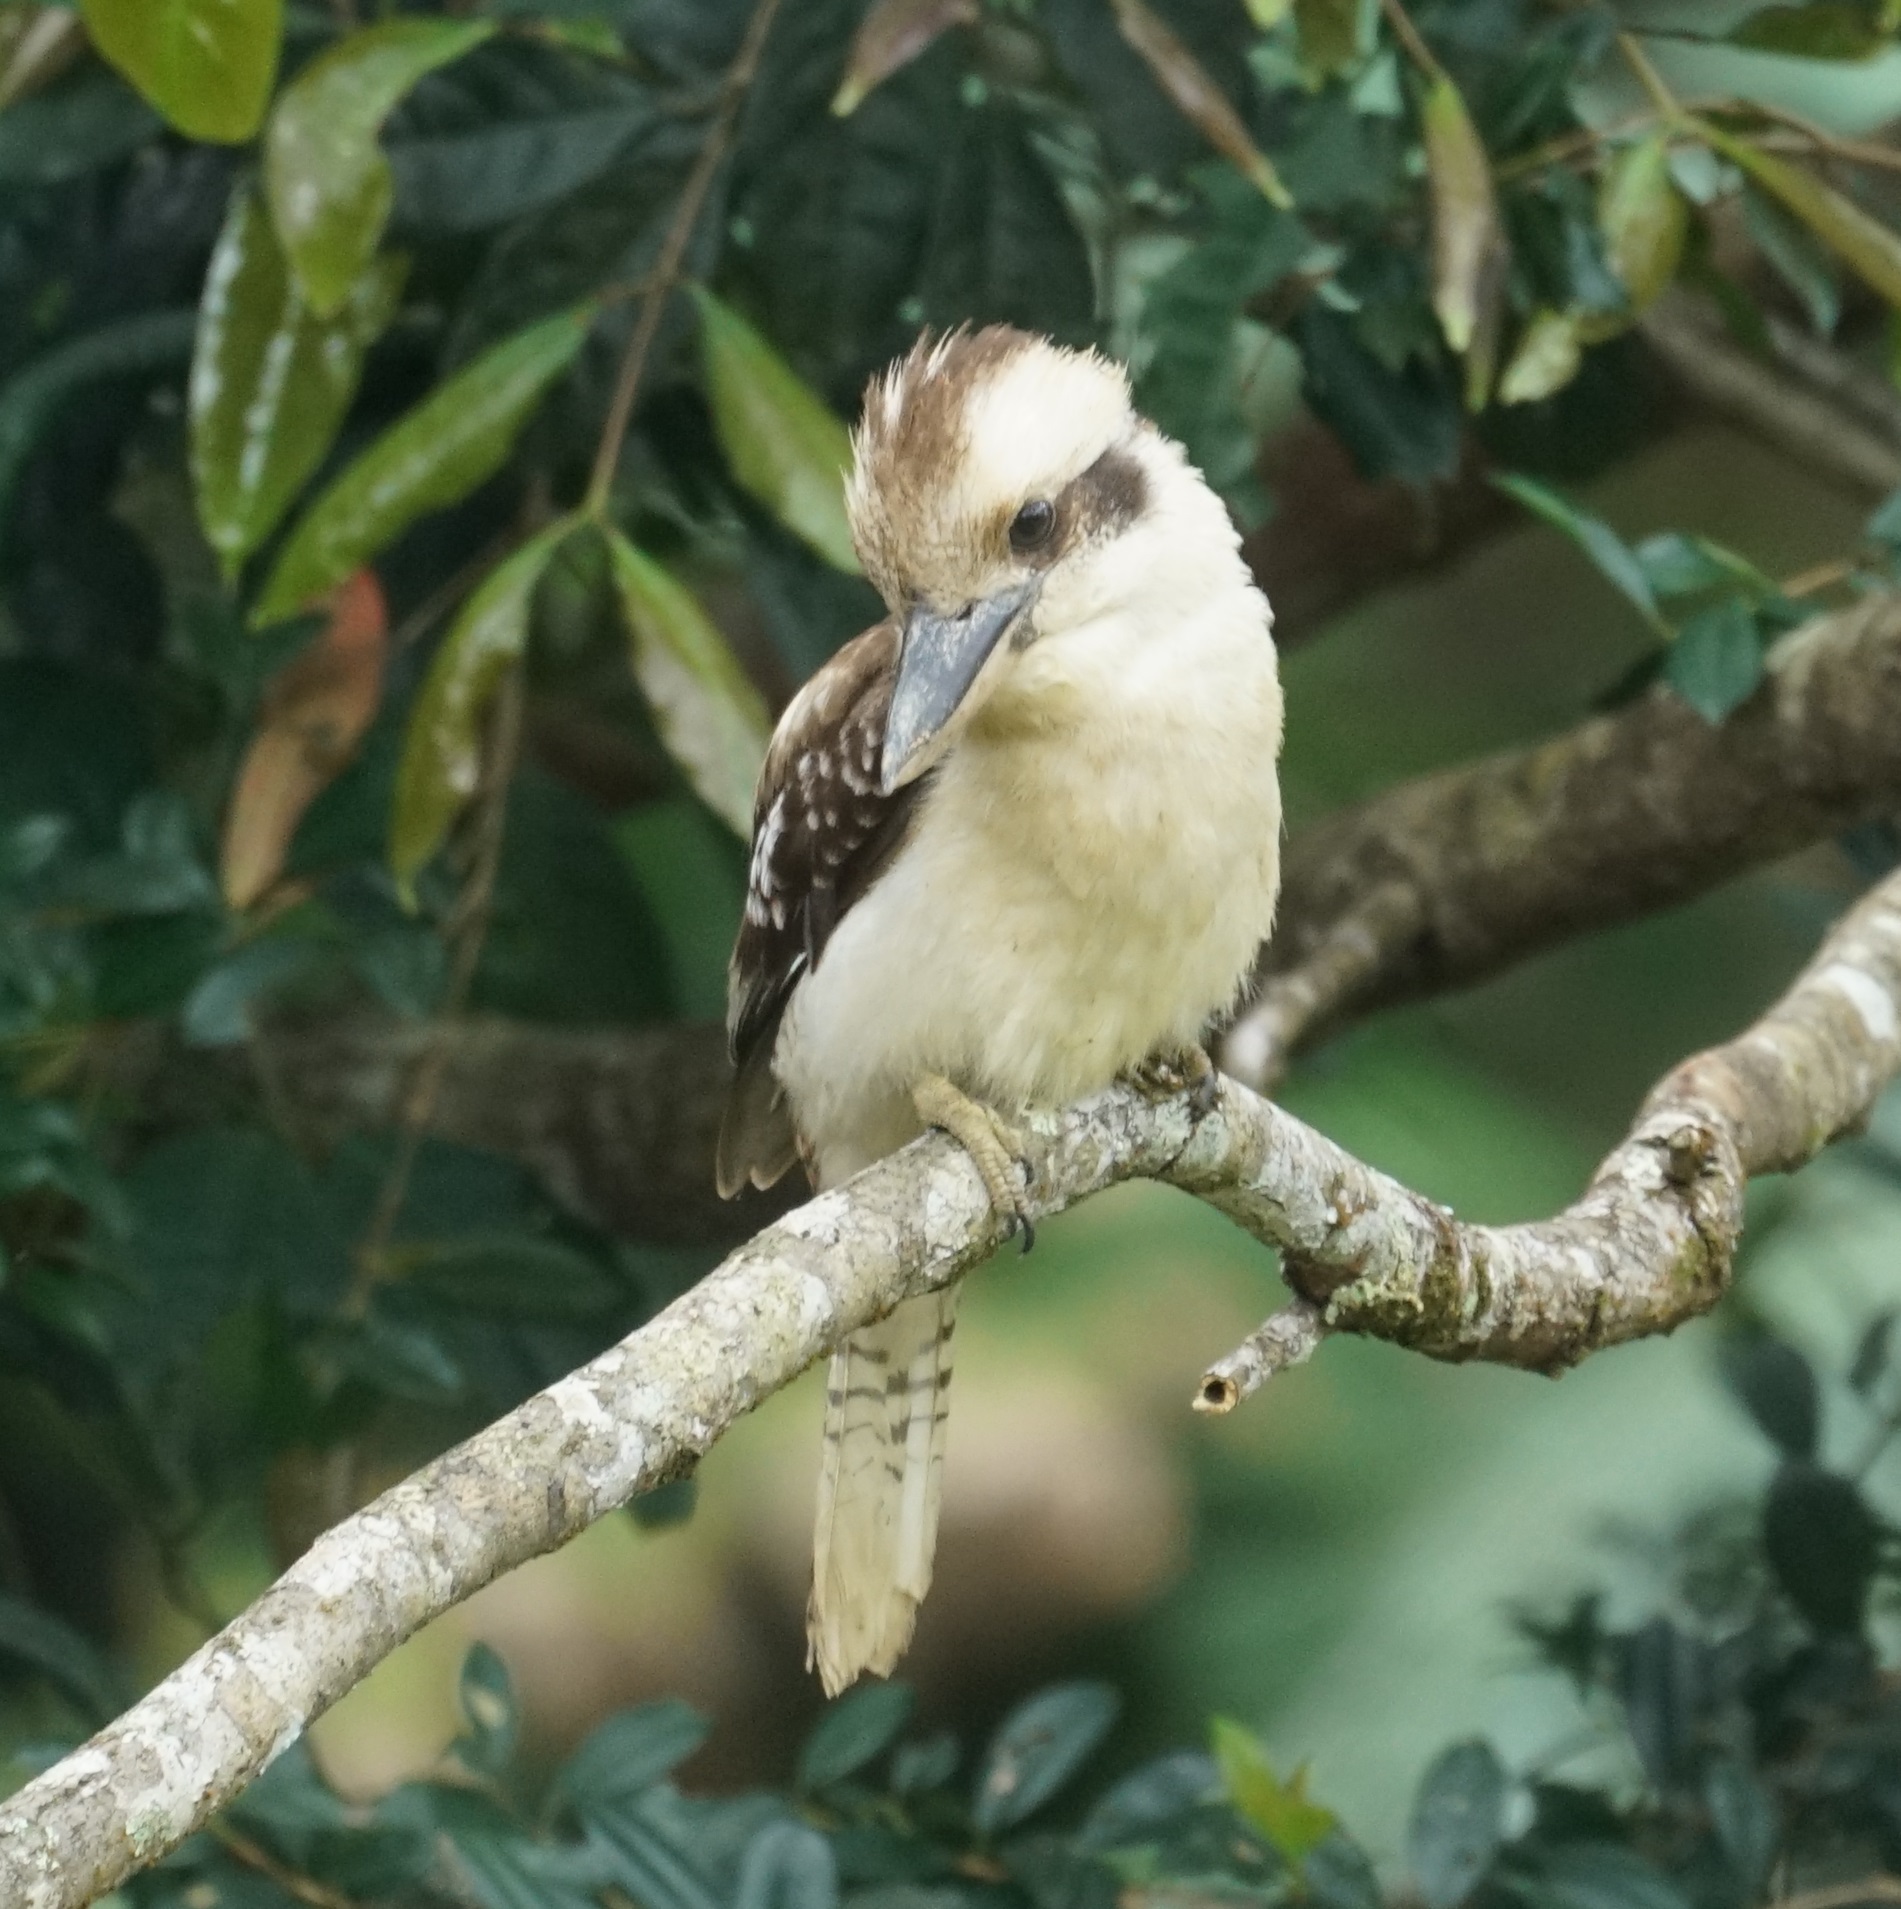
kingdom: Animalia
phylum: Chordata
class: Aves
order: Coraciiformes
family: Alcedinidae
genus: Dacelo
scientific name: Dacelo novaeguineae
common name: Laughing kookaburra
